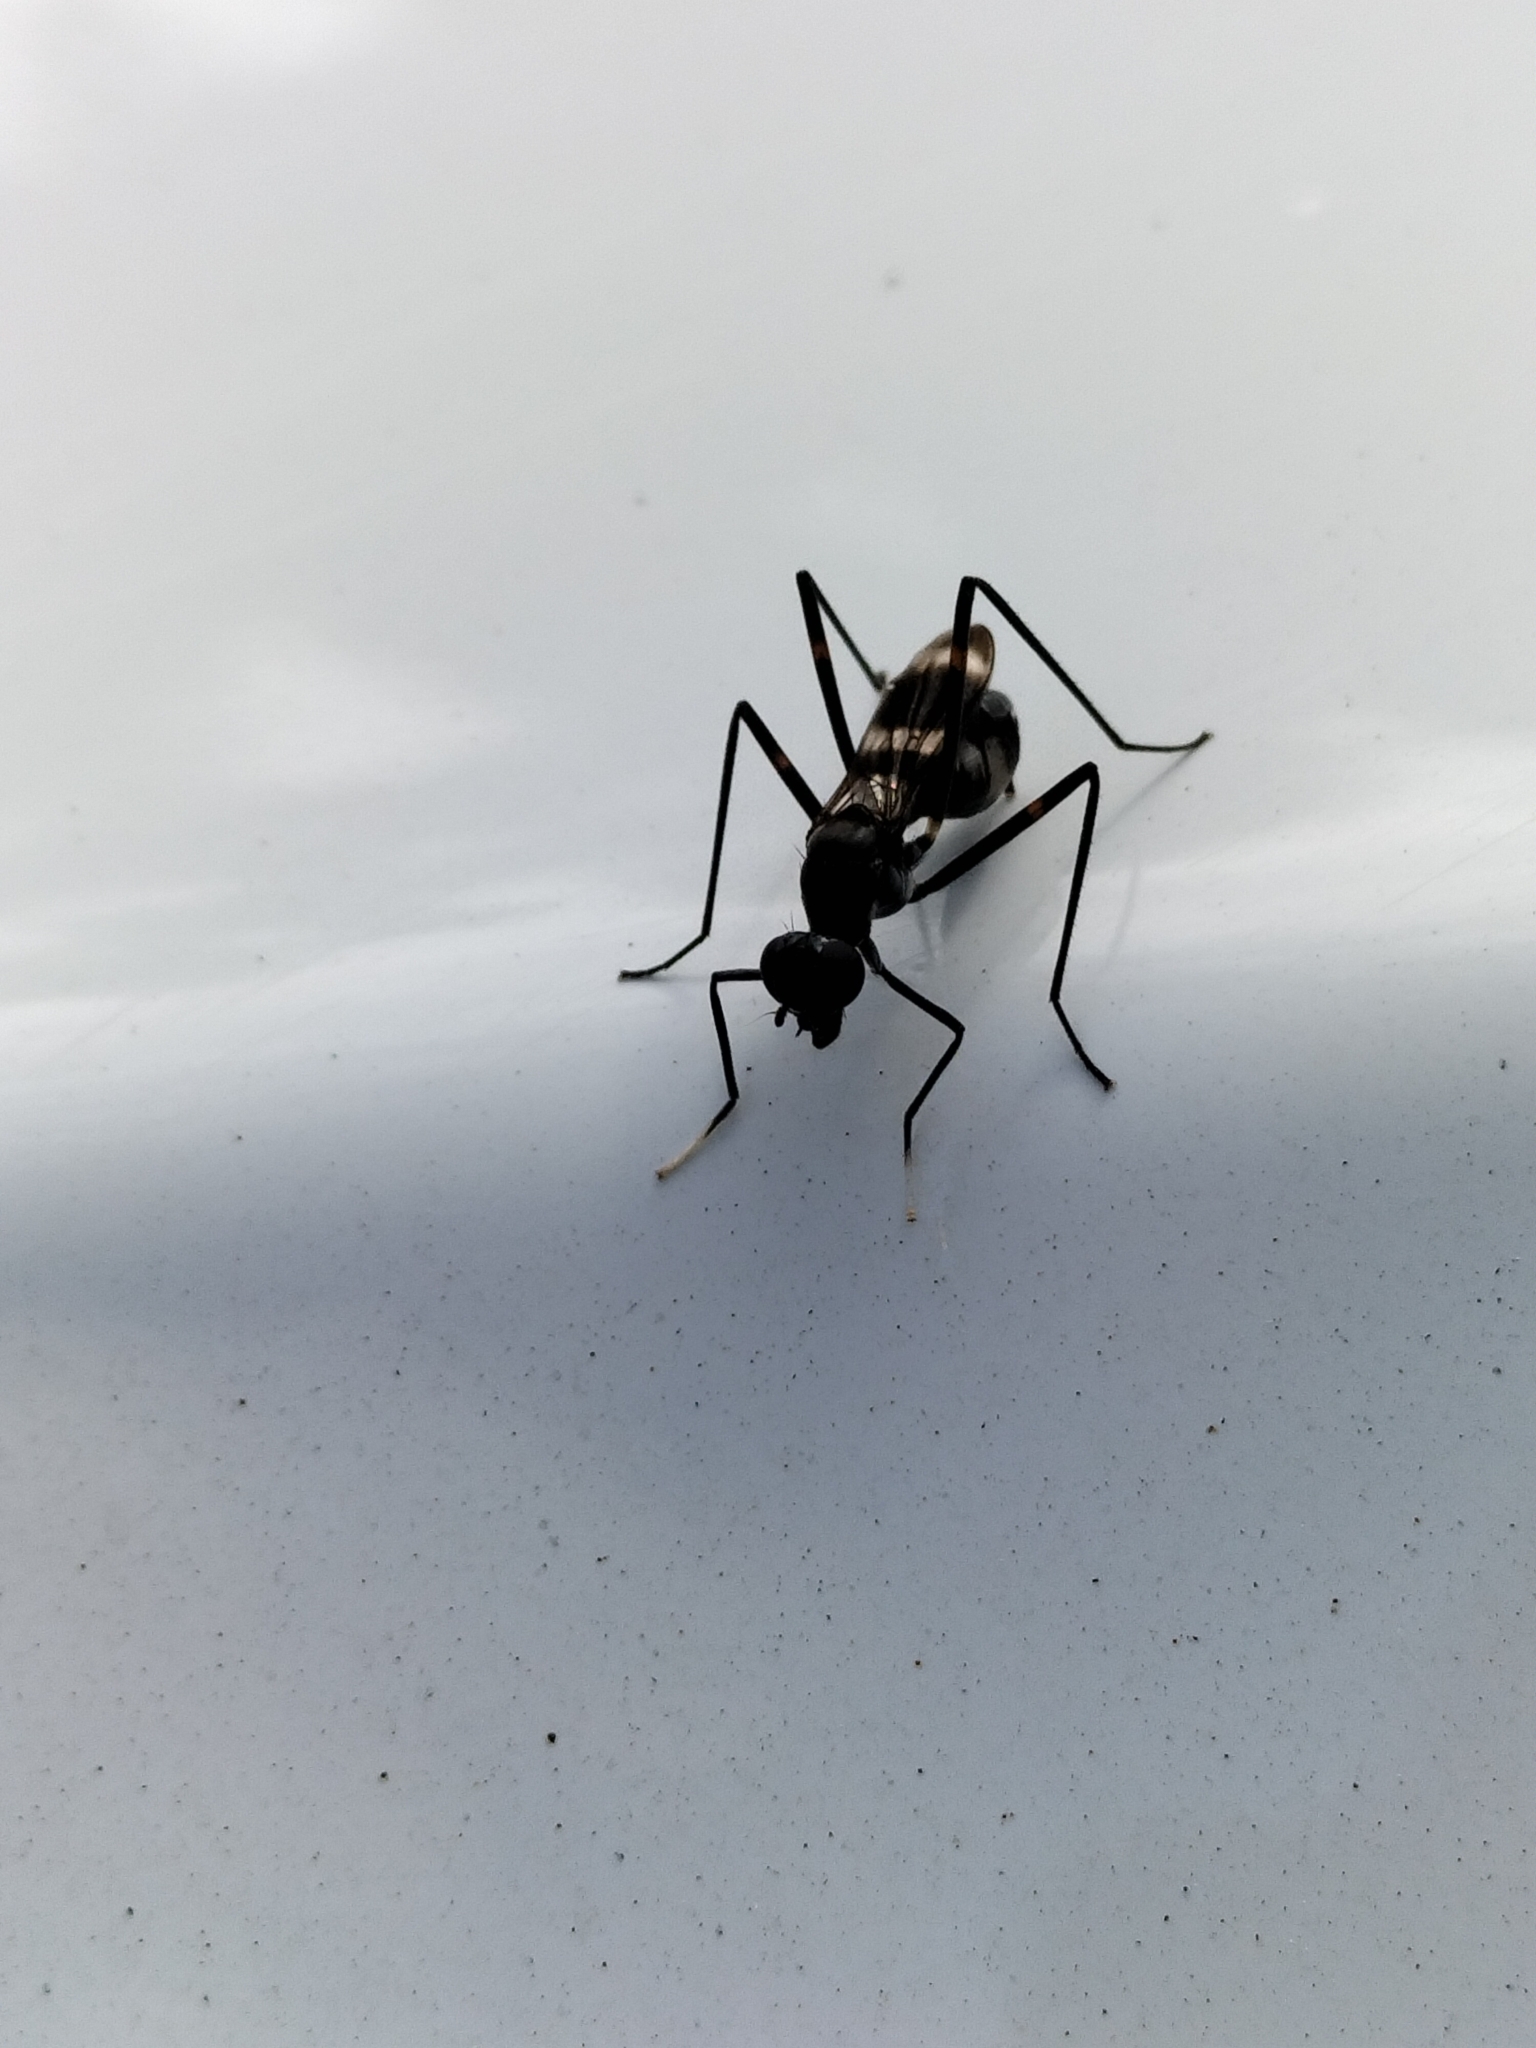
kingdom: Animalia
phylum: Arthropoda
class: Insecta
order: Diptera
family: Micropezidae
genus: Mimegralla
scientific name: Mimegralla australica
